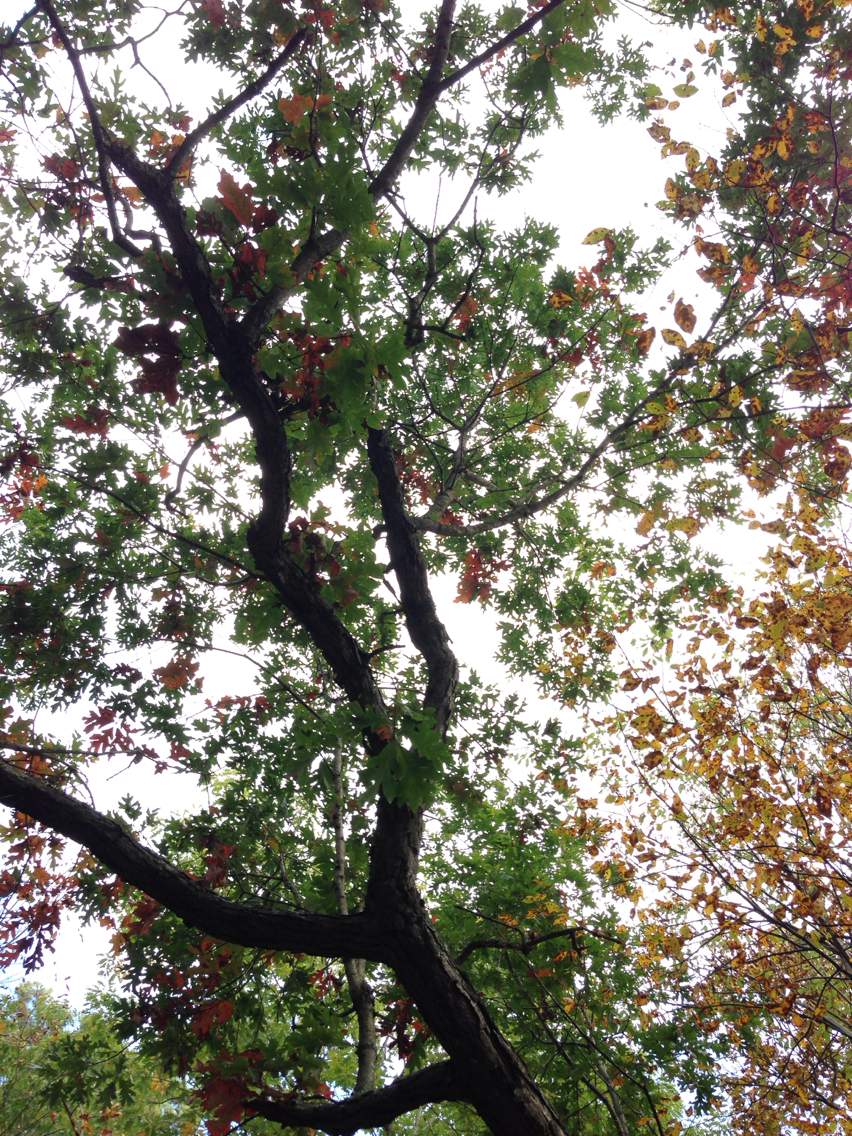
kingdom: Plantae
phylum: Tracheophyta
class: Magnoliopsida
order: Fagales
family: Fagaceae
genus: Quercus
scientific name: Quercus alba
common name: White oak
